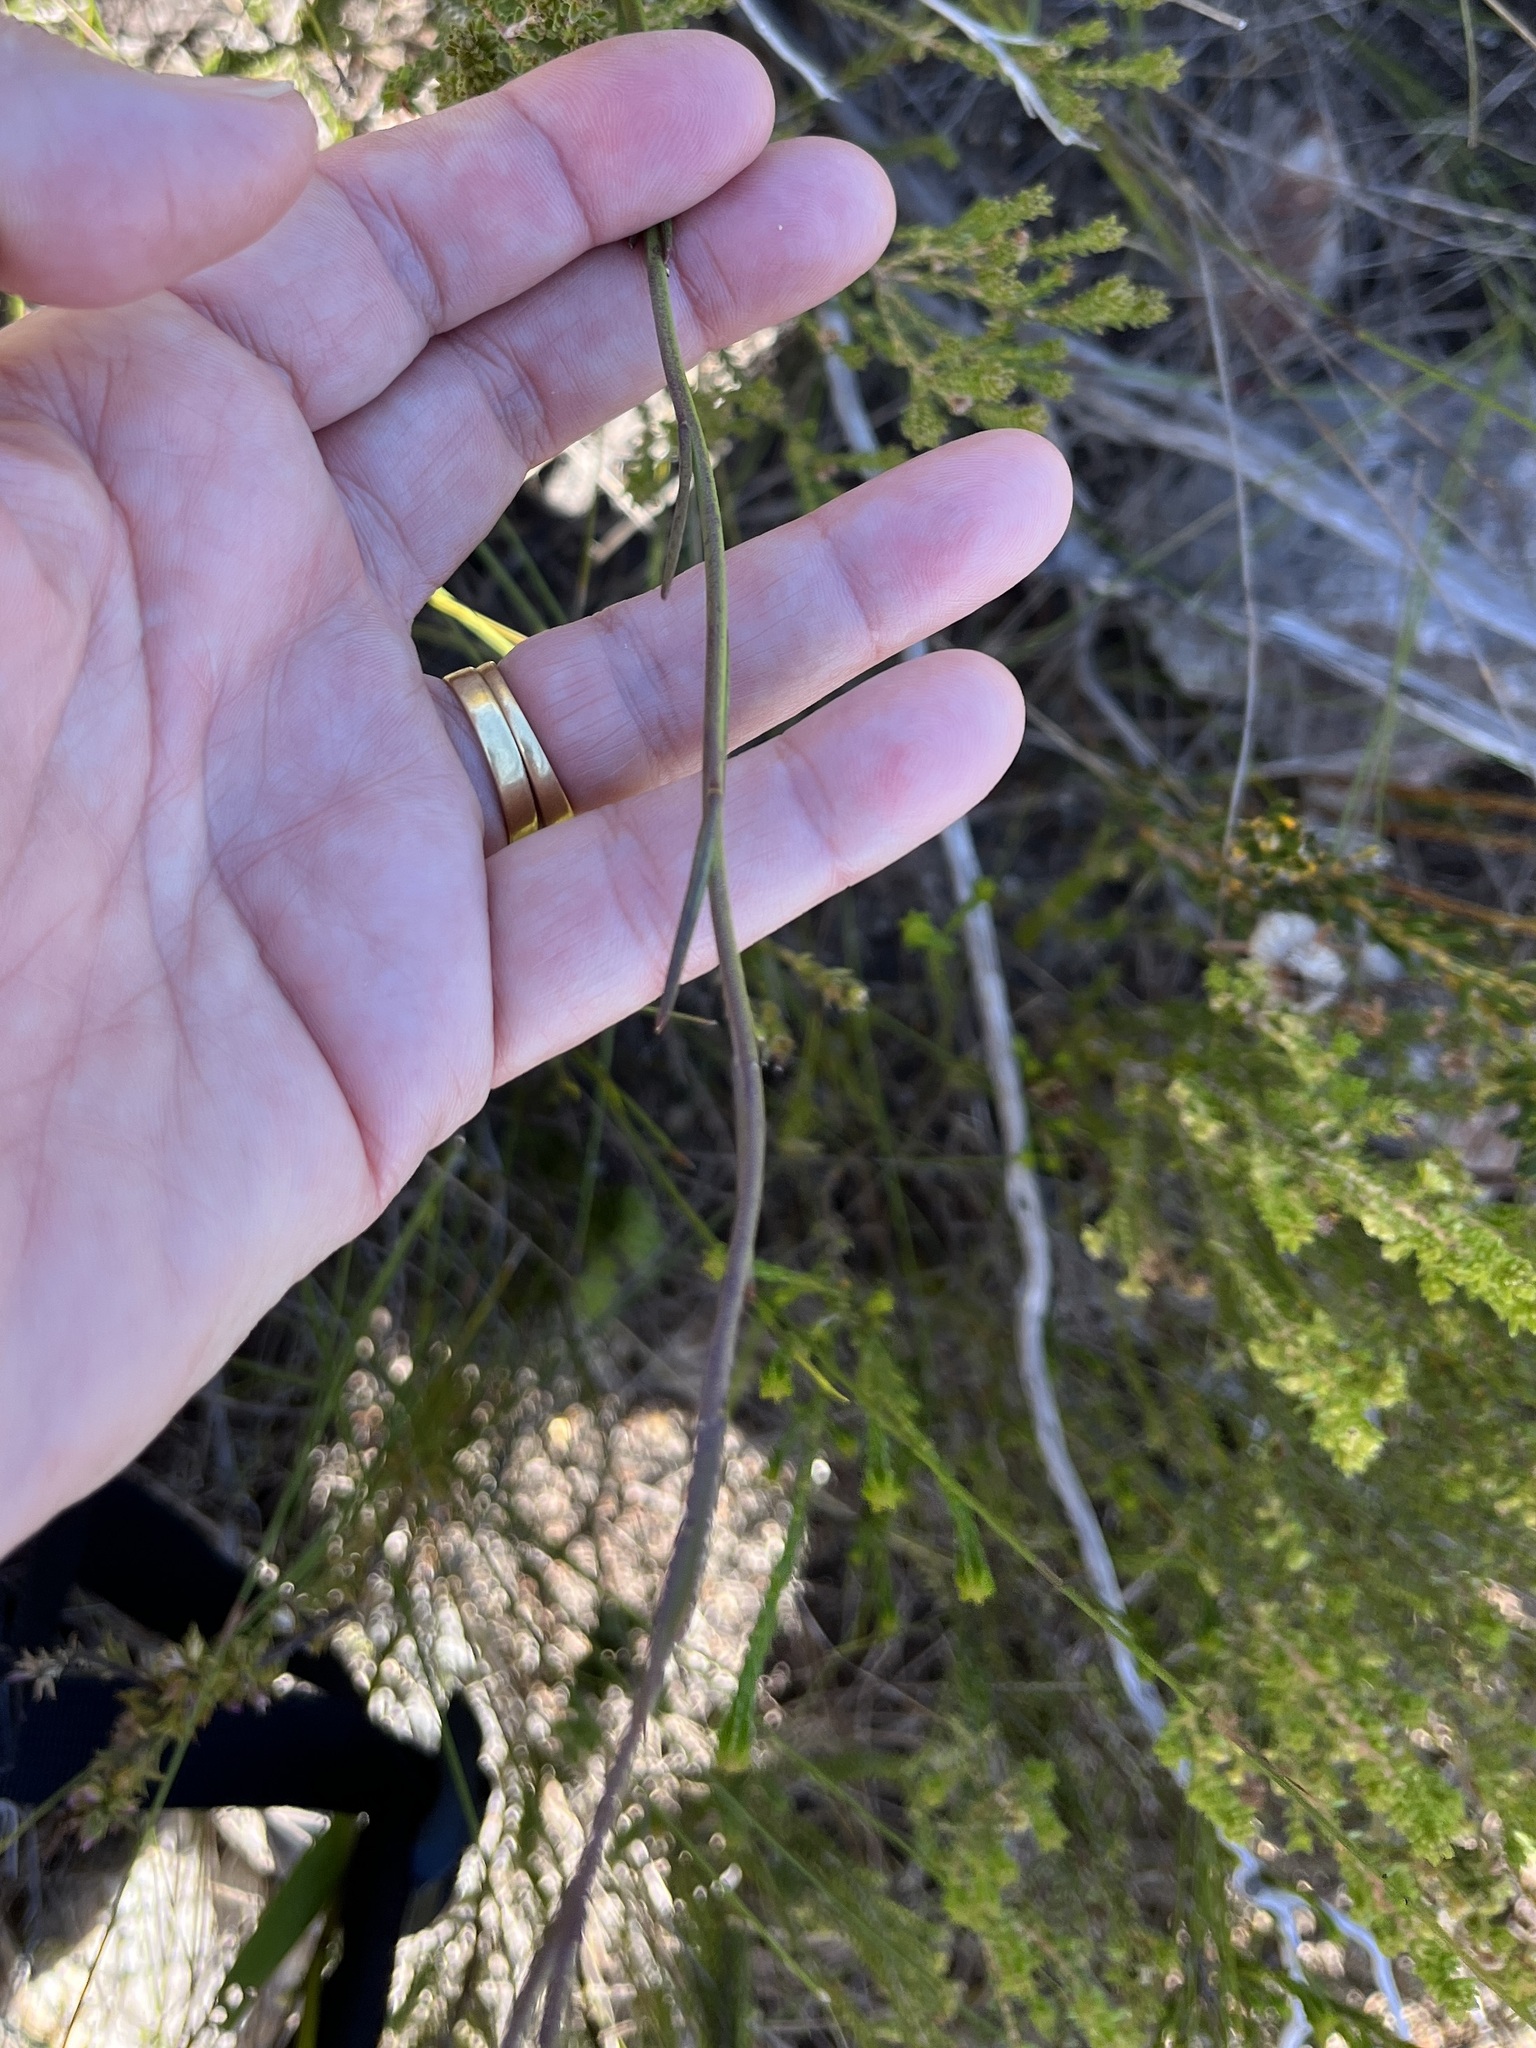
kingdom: Plantae
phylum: Tracheophyta
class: Magnoliopsida
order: Brassicales
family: Brassicaceae
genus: Heliophila
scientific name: Heliophila macra
